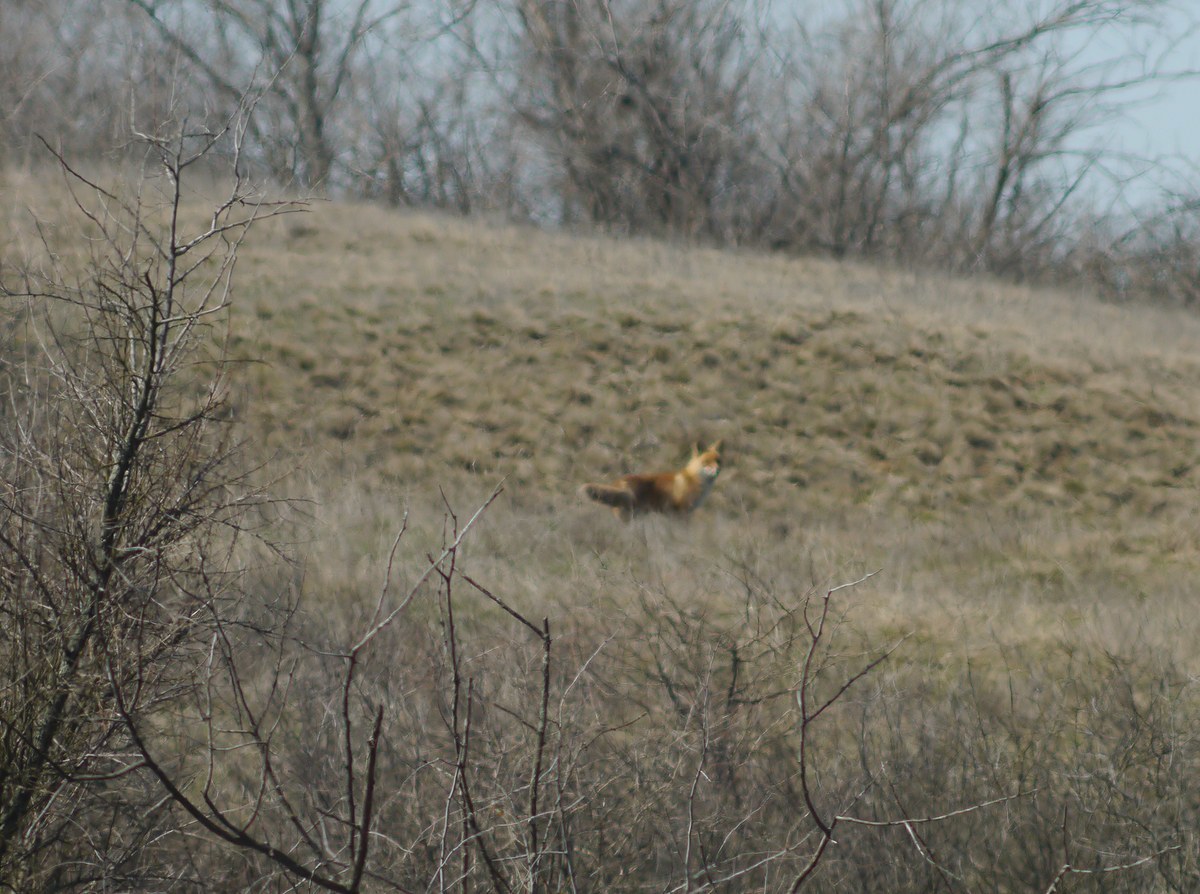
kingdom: Animalia
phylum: Chordata
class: Mammalia
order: Carnivora
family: Canidae
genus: Vulpes
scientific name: Vulpes vulpes
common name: Red fox
